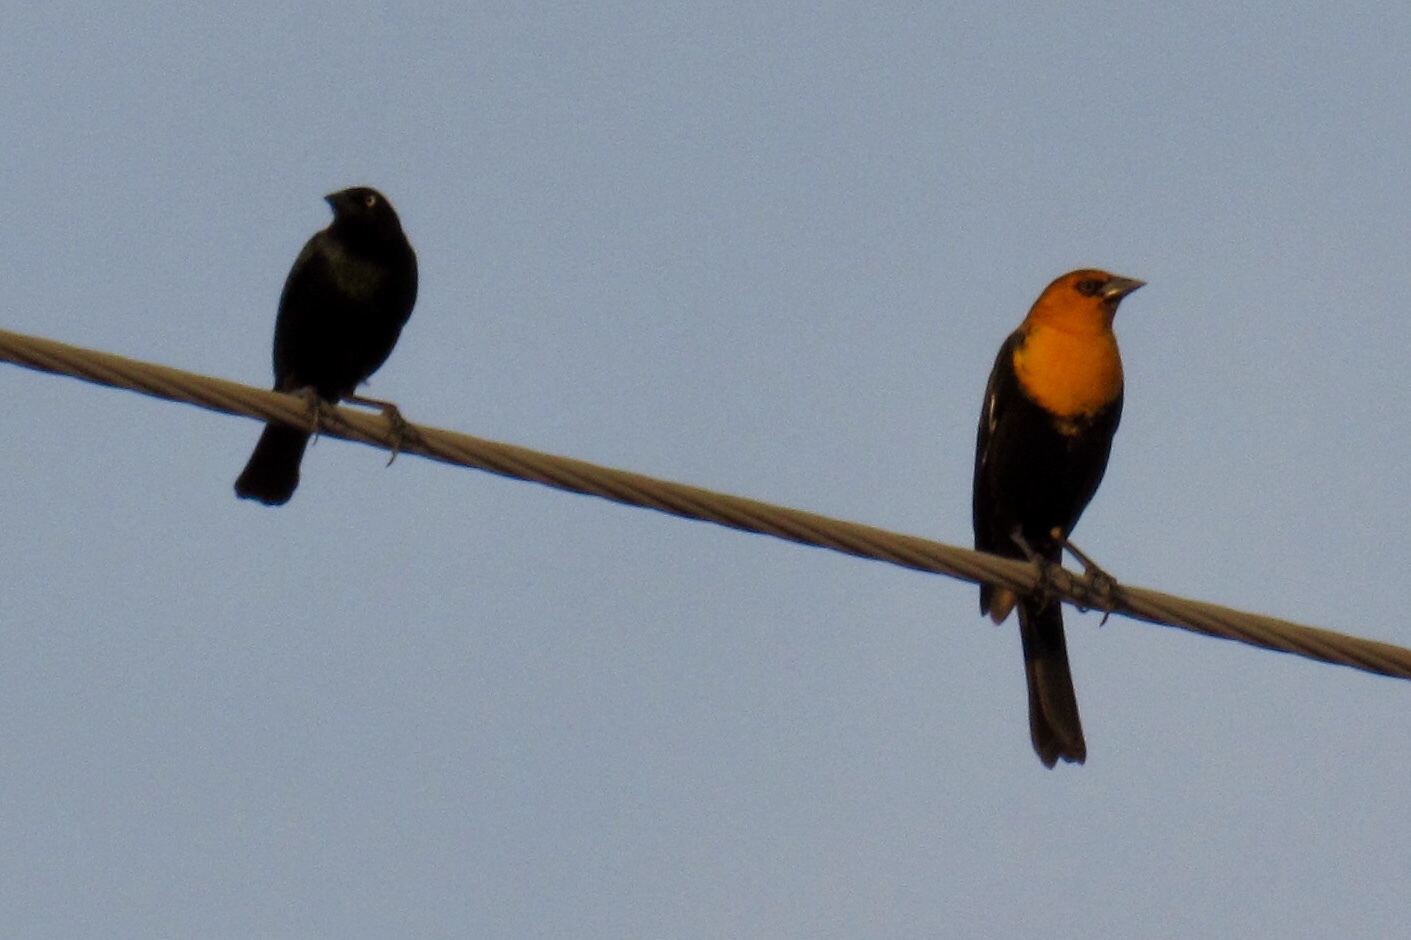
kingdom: Animalia
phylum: Chordata
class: Aves
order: Passeriformes
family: Icteridae
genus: Euphagus
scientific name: Euphagus cyanocephalus
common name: Brewer's blackbird
